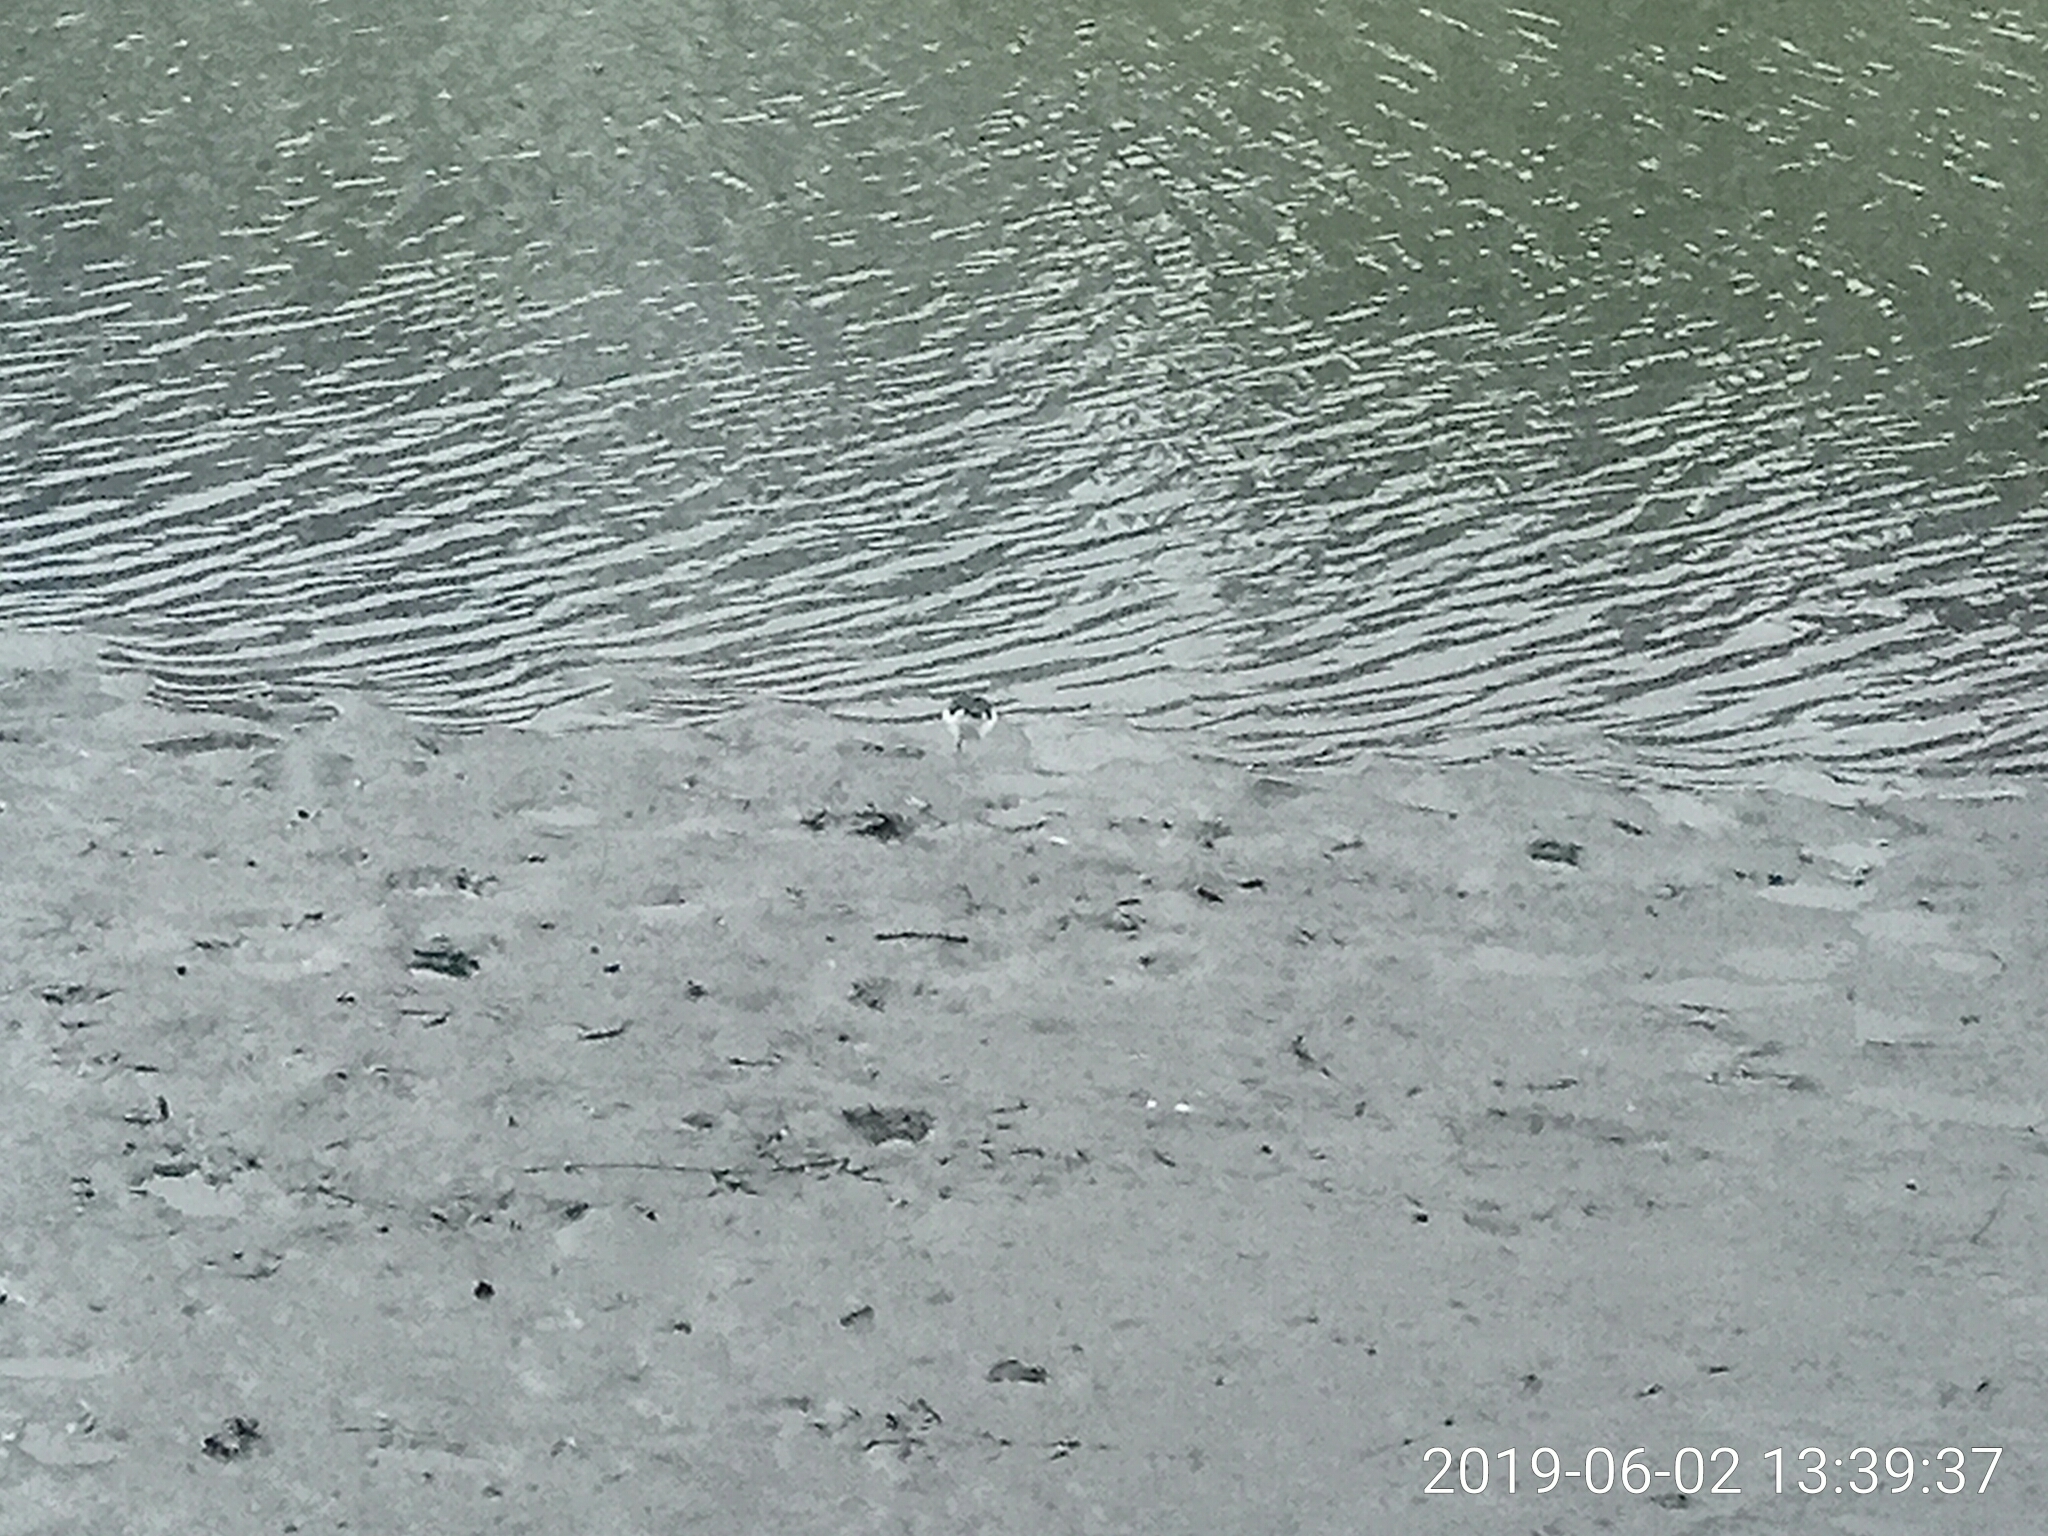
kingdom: Animalia
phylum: Chordata
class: Aves
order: Charadriiformes
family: Recurvirostridae
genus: Himantopus
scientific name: Himantopus leucocephalus
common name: White-headed stilt
